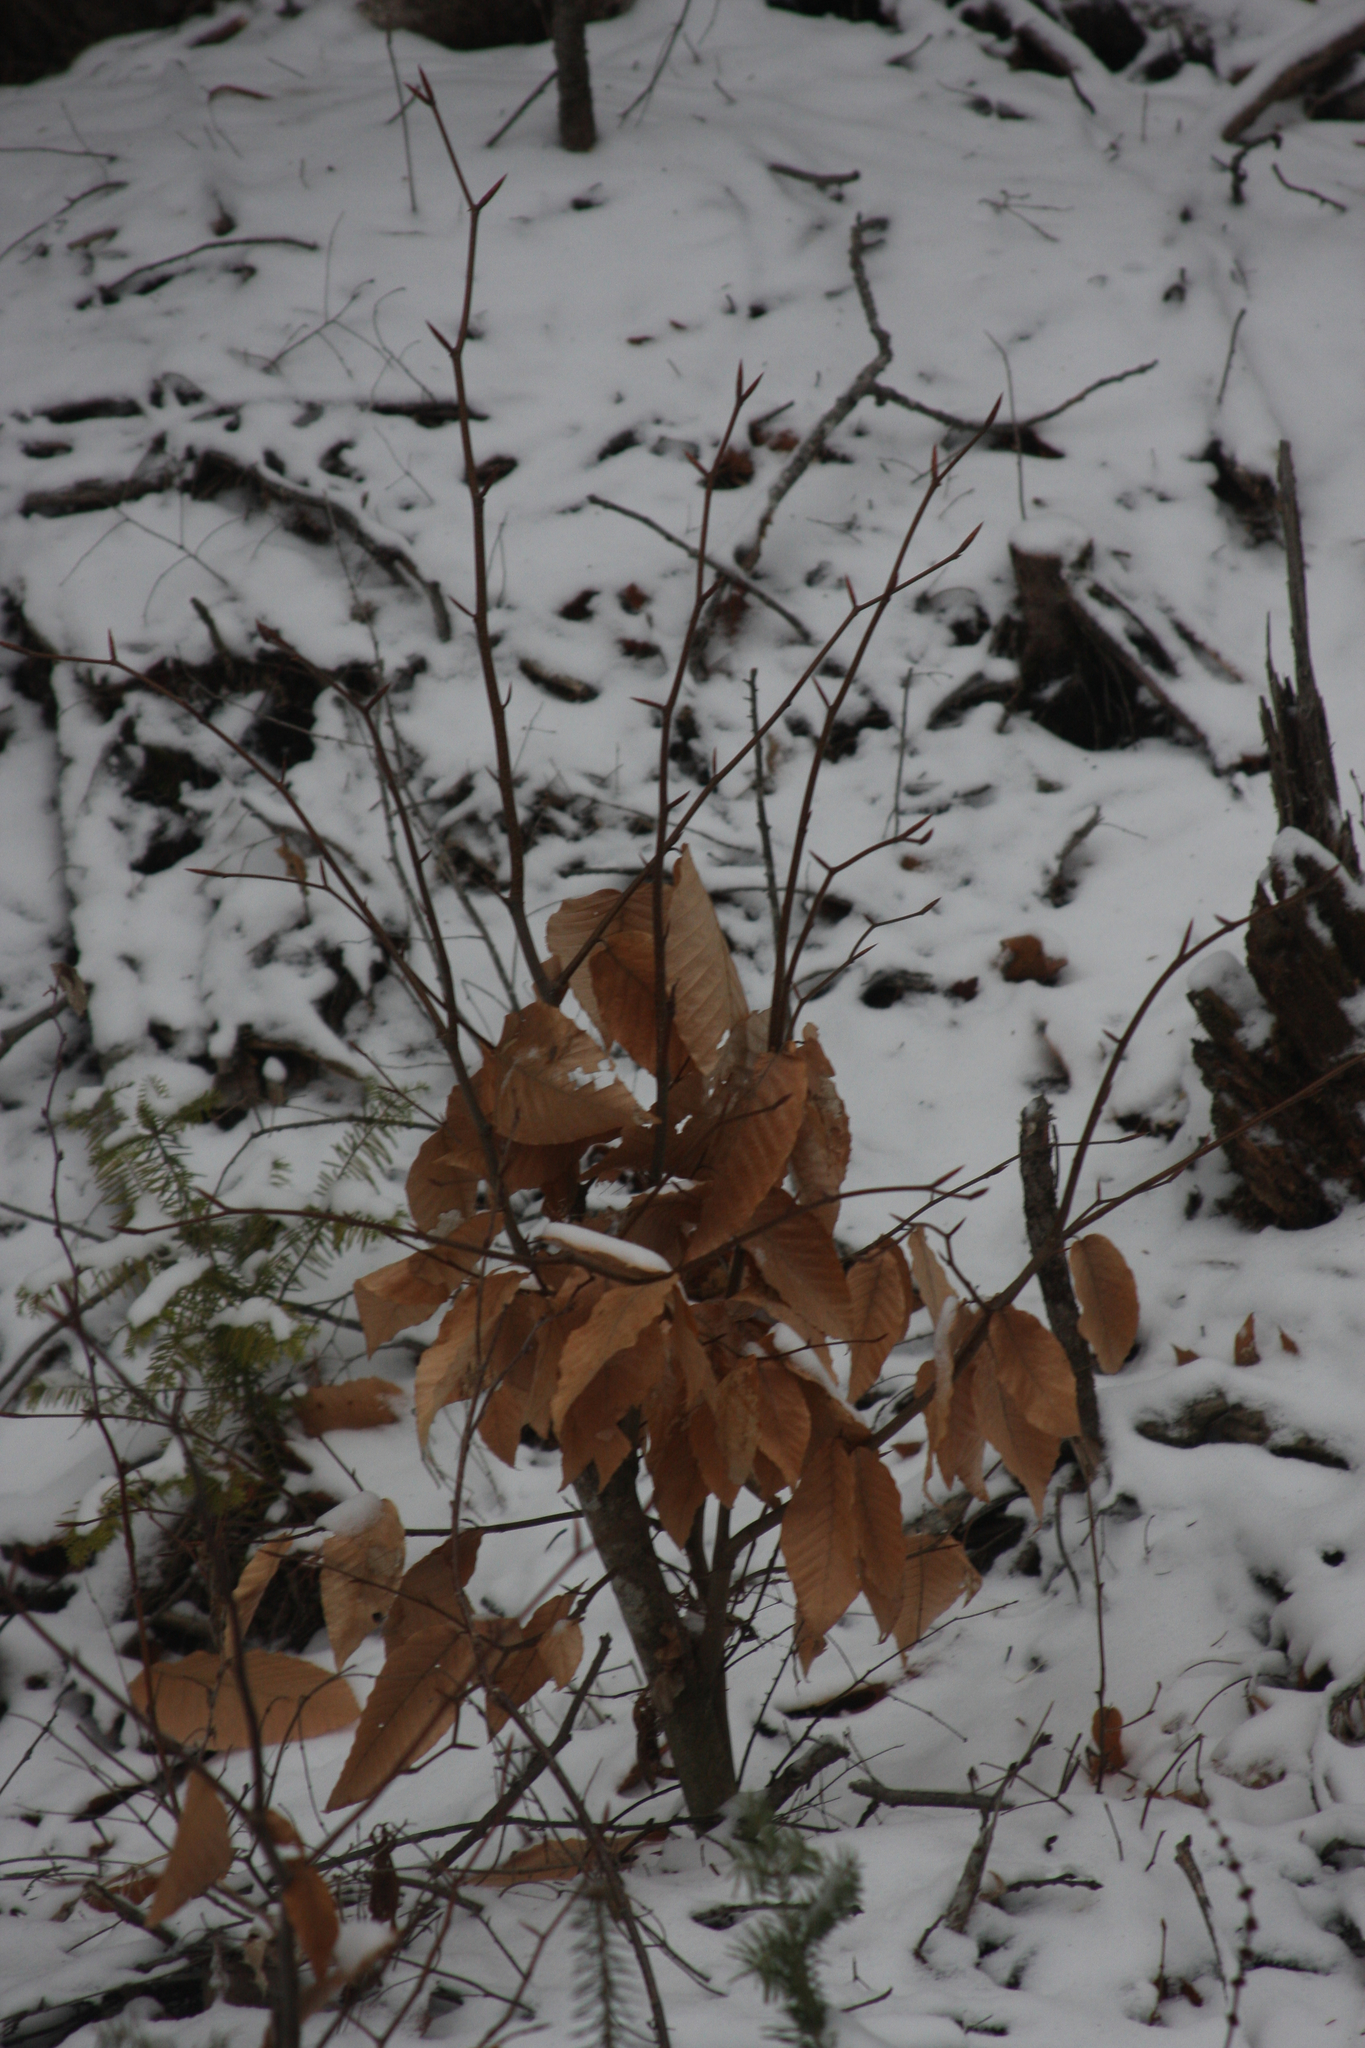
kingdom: Plantae
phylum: Tracheophyta
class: Magnoliopsida
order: Fagales
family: Fagaceae
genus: Fagus
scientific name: Fagus grandifolia
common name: American beech
